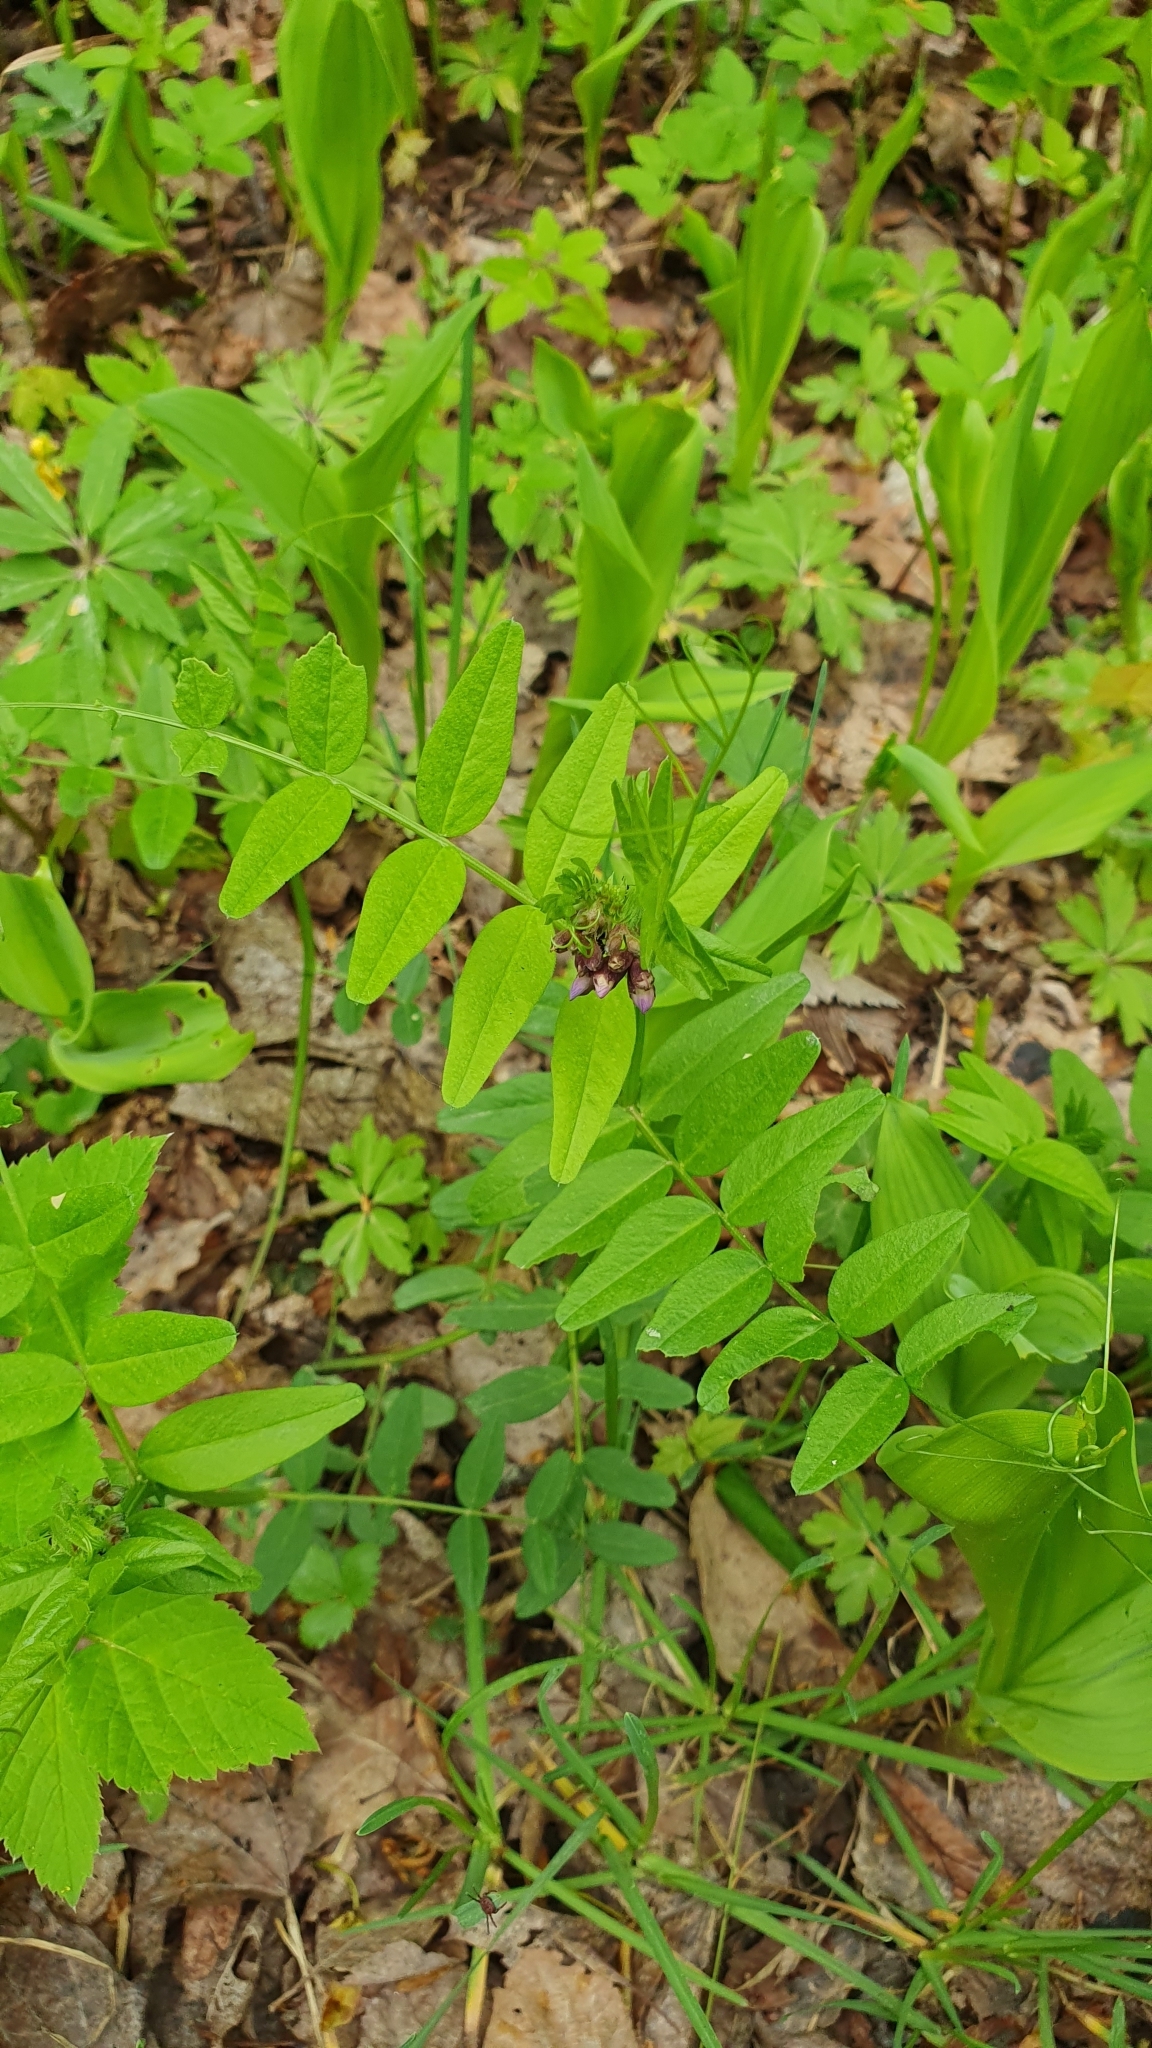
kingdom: Plantae
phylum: Tracheophyta
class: Magnoliopsida
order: Fabales
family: Fabaceae
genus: Vicia
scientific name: Vicia sepium
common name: Bush vetch
